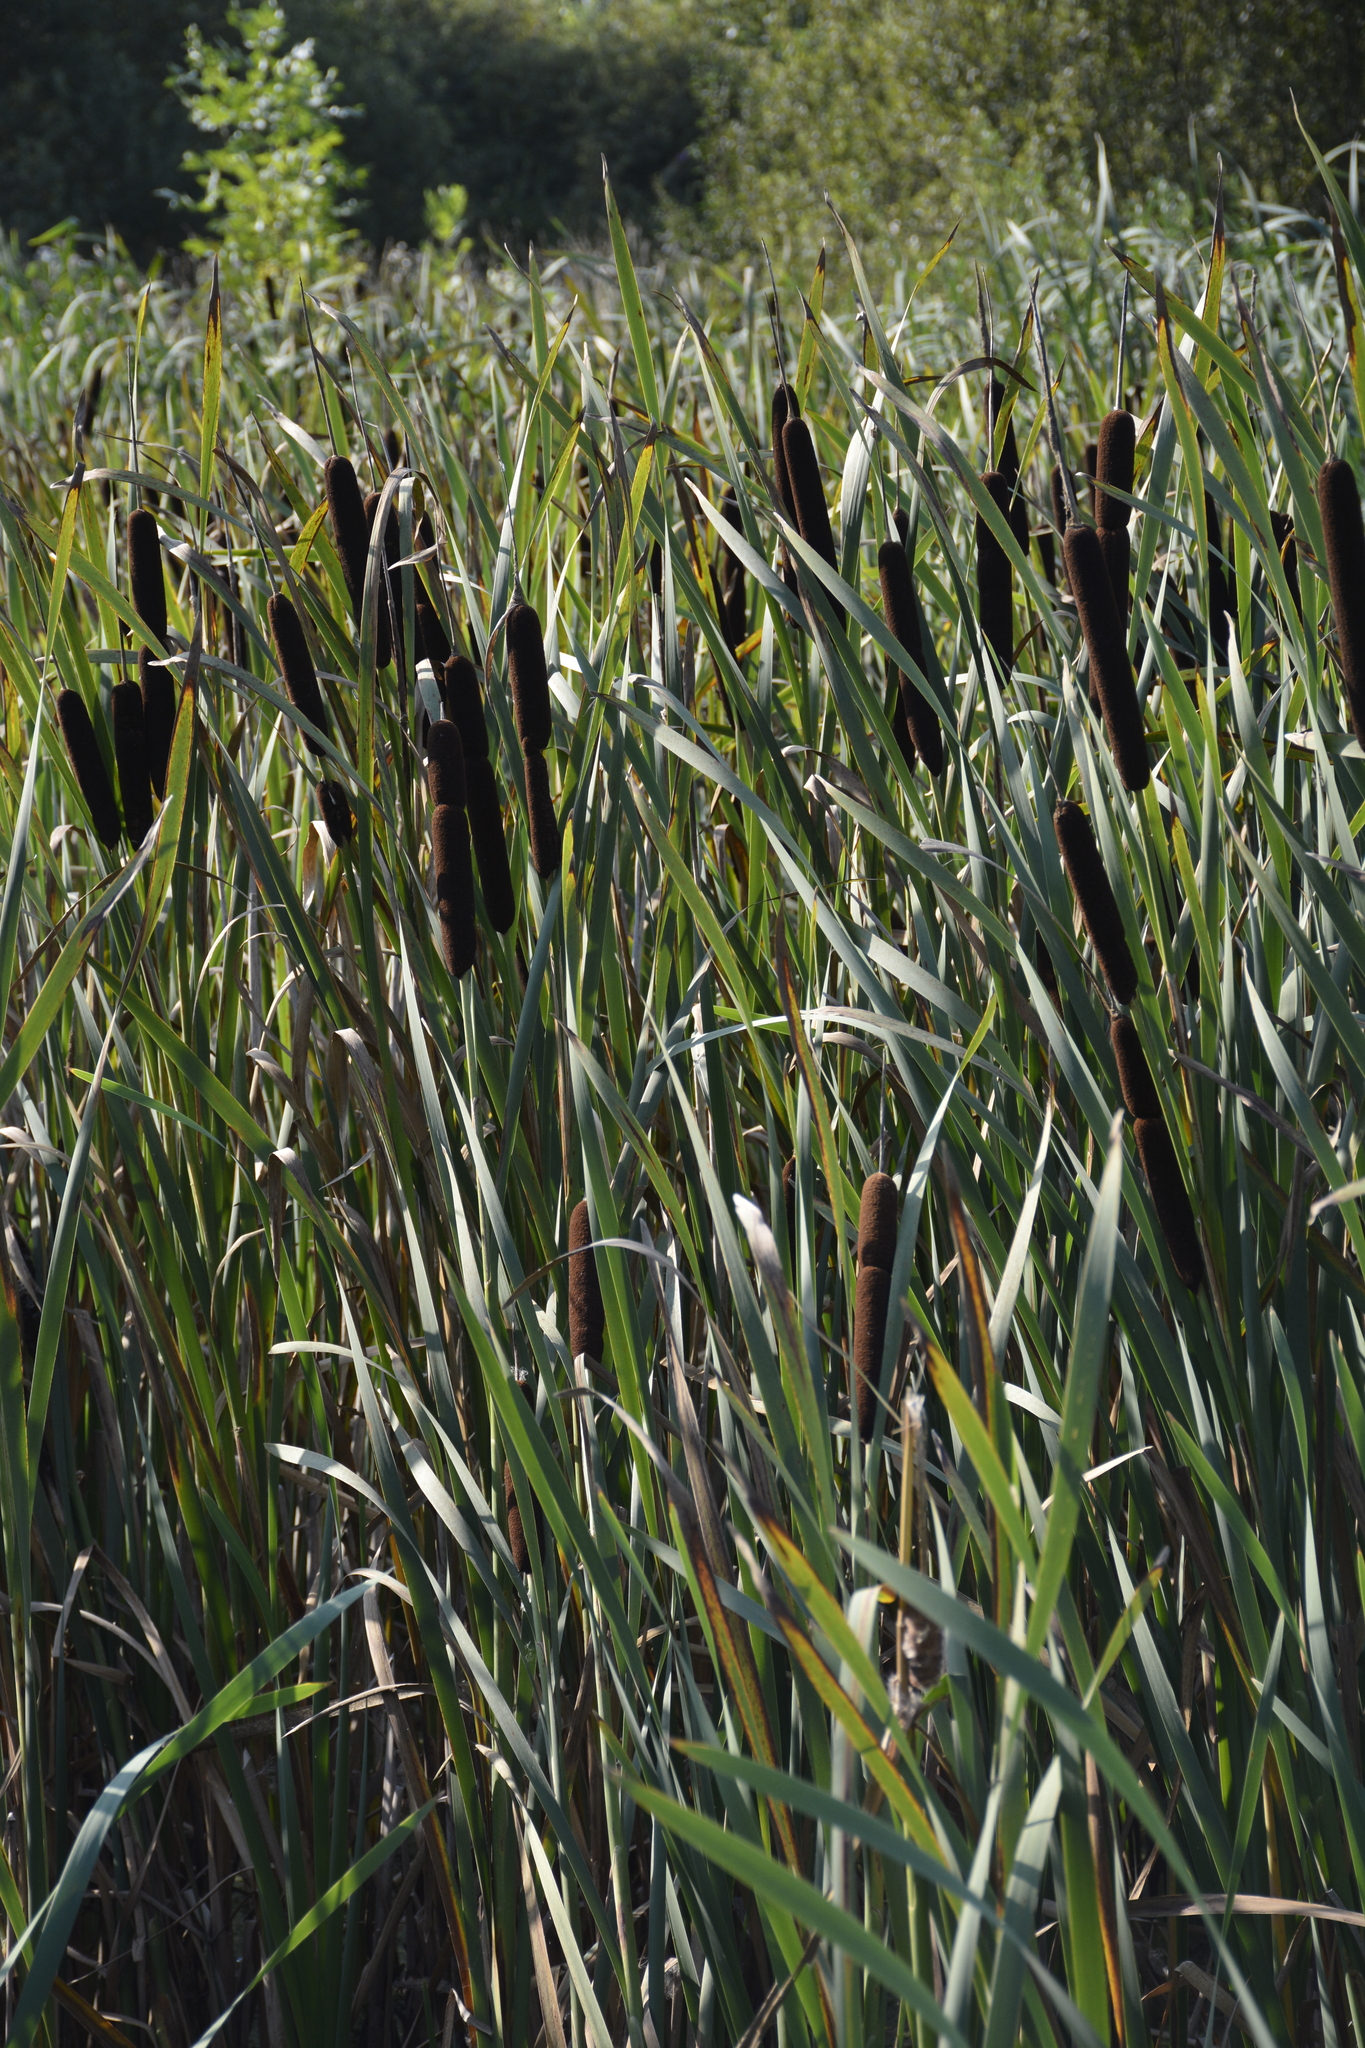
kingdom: Plantae
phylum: Tracheophyta
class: Liliopsida
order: Poales
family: Typhaceae
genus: Typha
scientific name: Typha latifolia
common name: Broadleaf cattail
